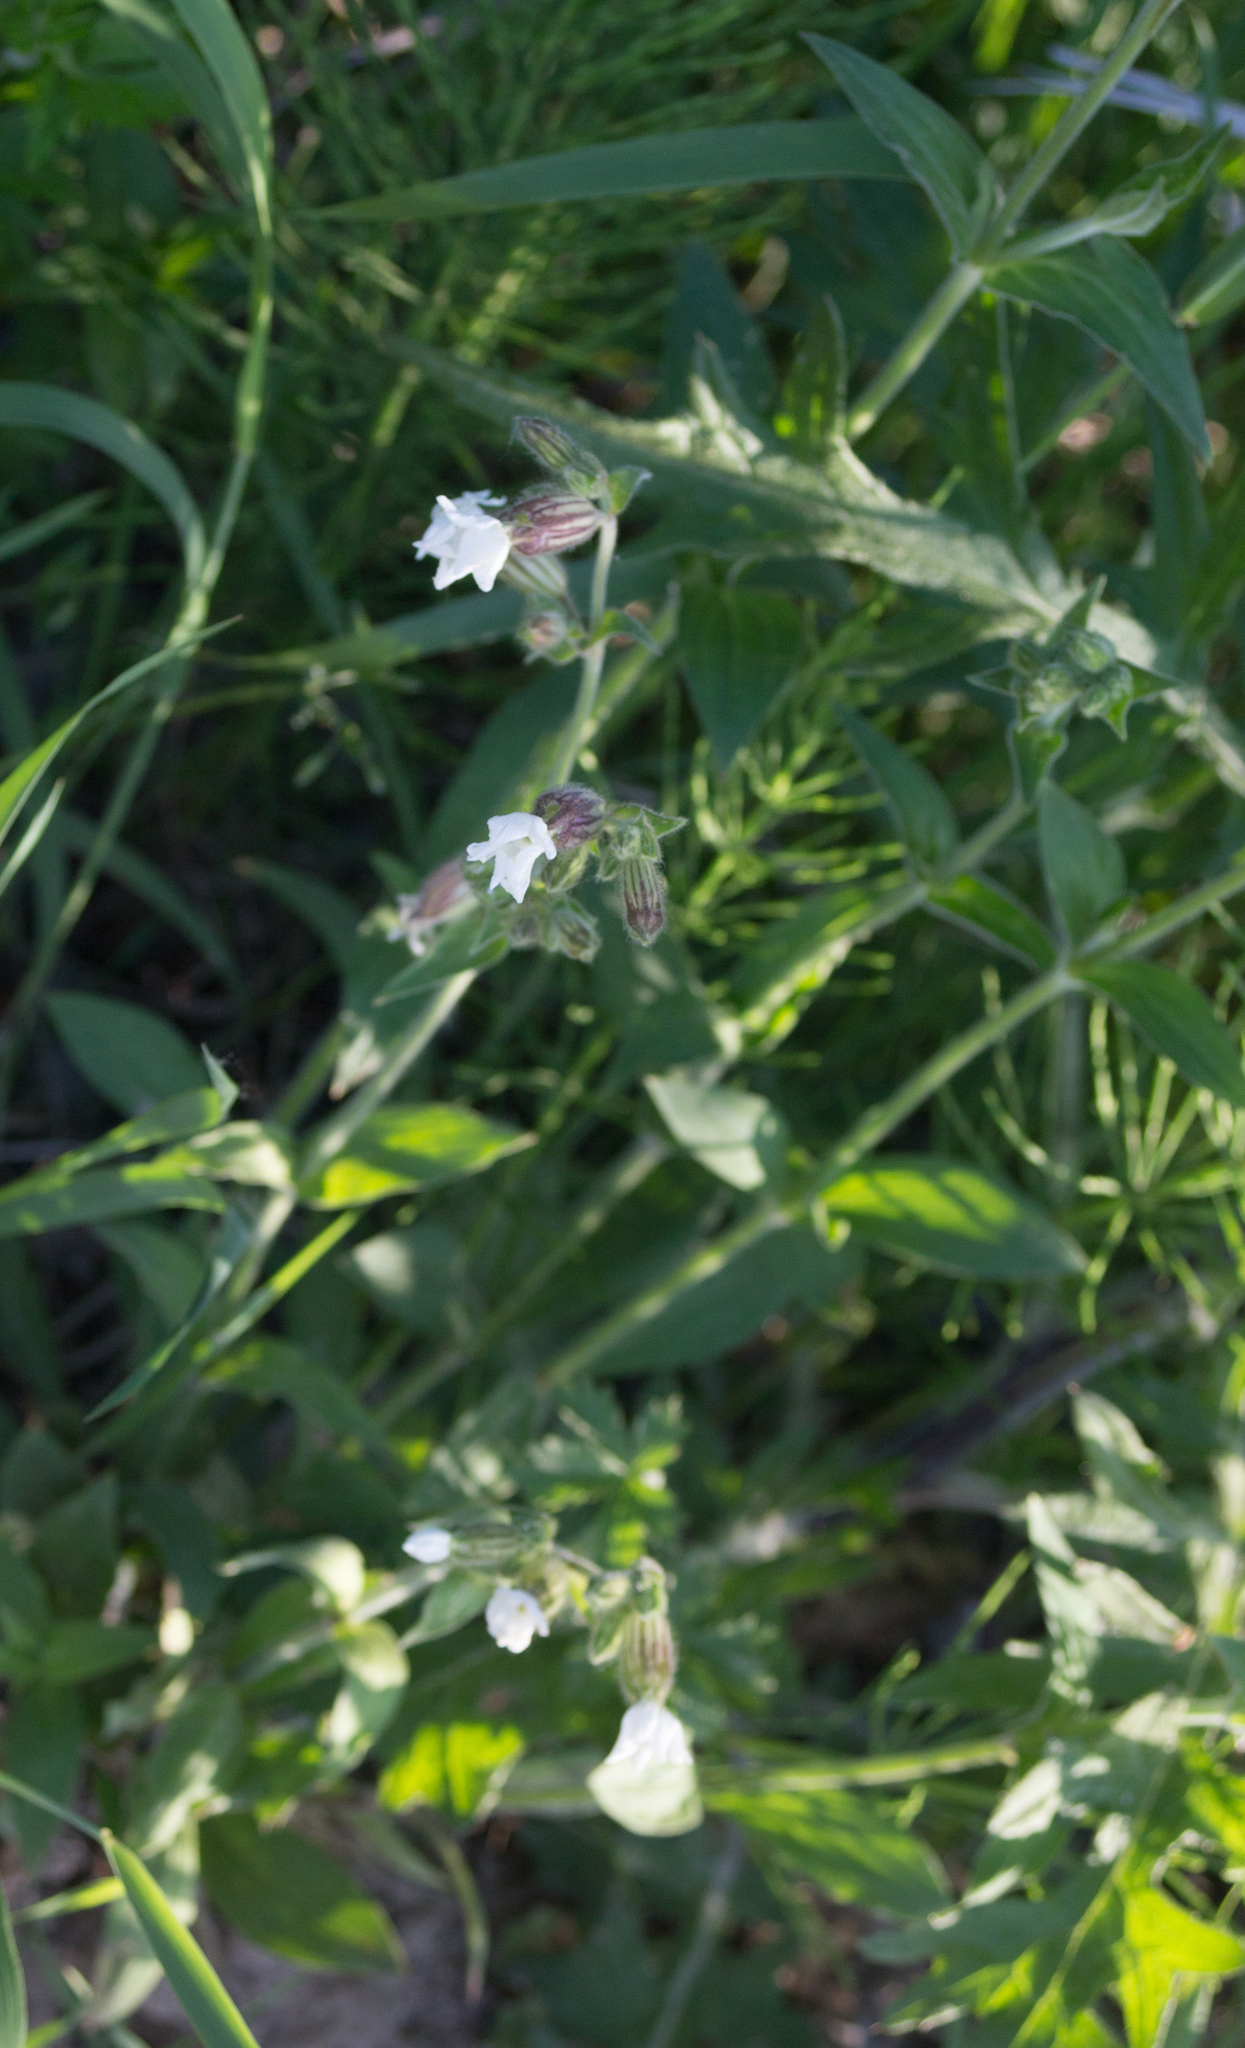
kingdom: Plantae
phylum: Tracheophyta
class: Magnoliopsida
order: Caryophyllales
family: Caryophyllaceae
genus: Silene
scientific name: Silene latifolia
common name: White campion
